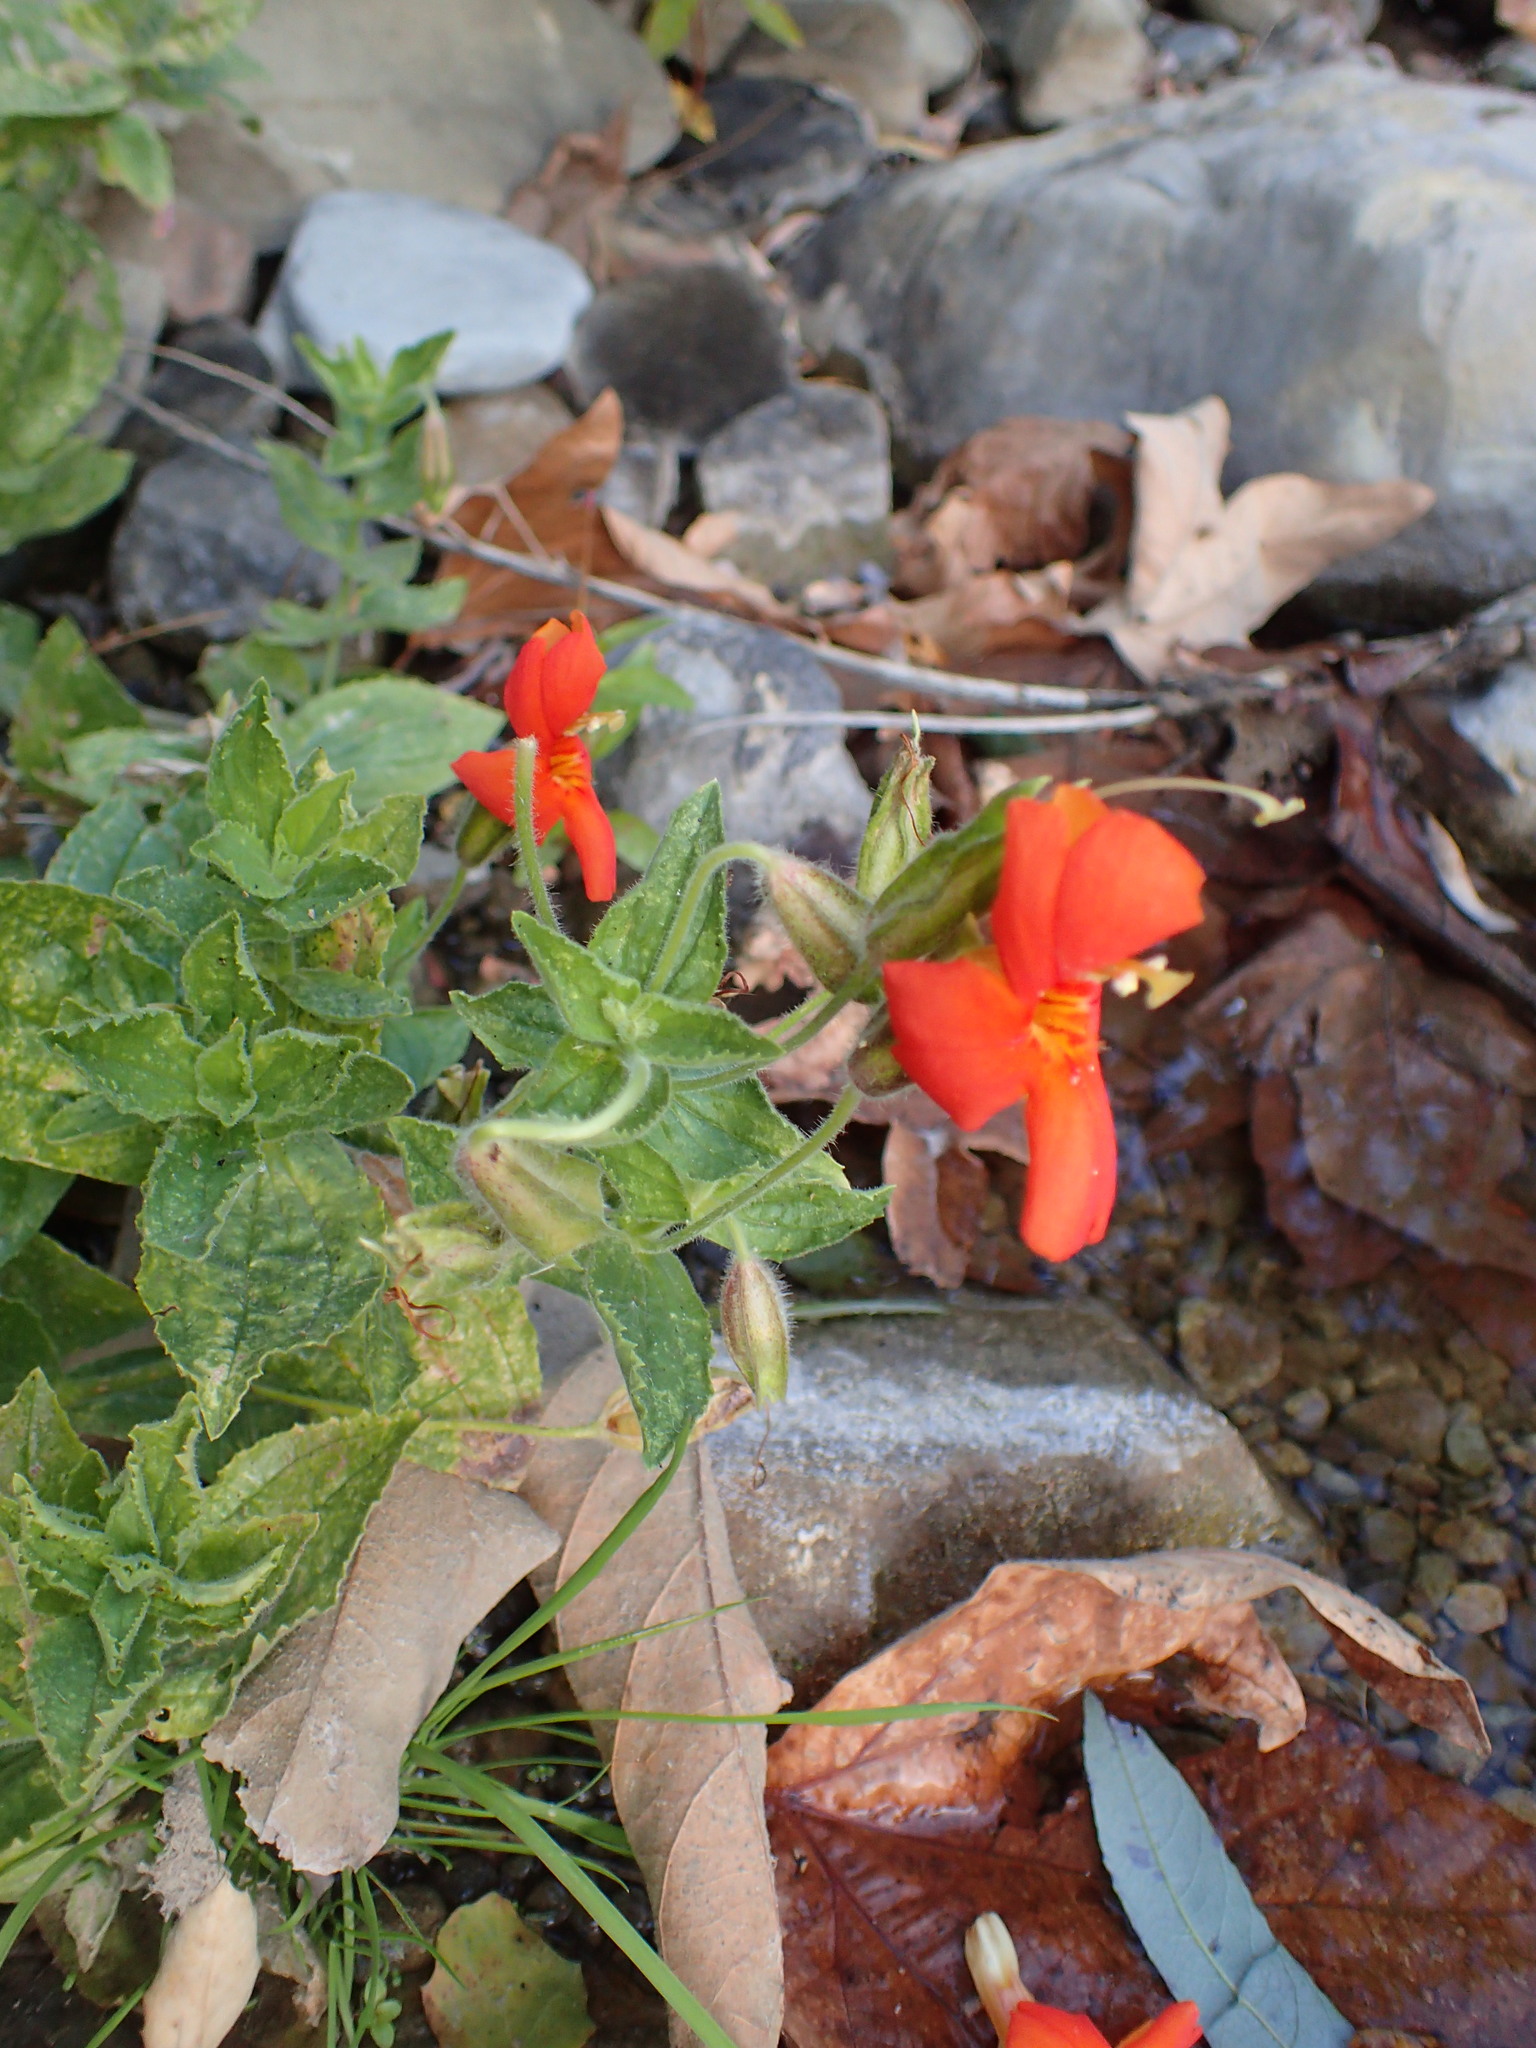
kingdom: Plantae
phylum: Tracheophyta
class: Magnoliopsida
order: Lamiales
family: Phrymaceae
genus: Erythranthe
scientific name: Erythranthe cardinalis
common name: Scarlet monkey-flower
